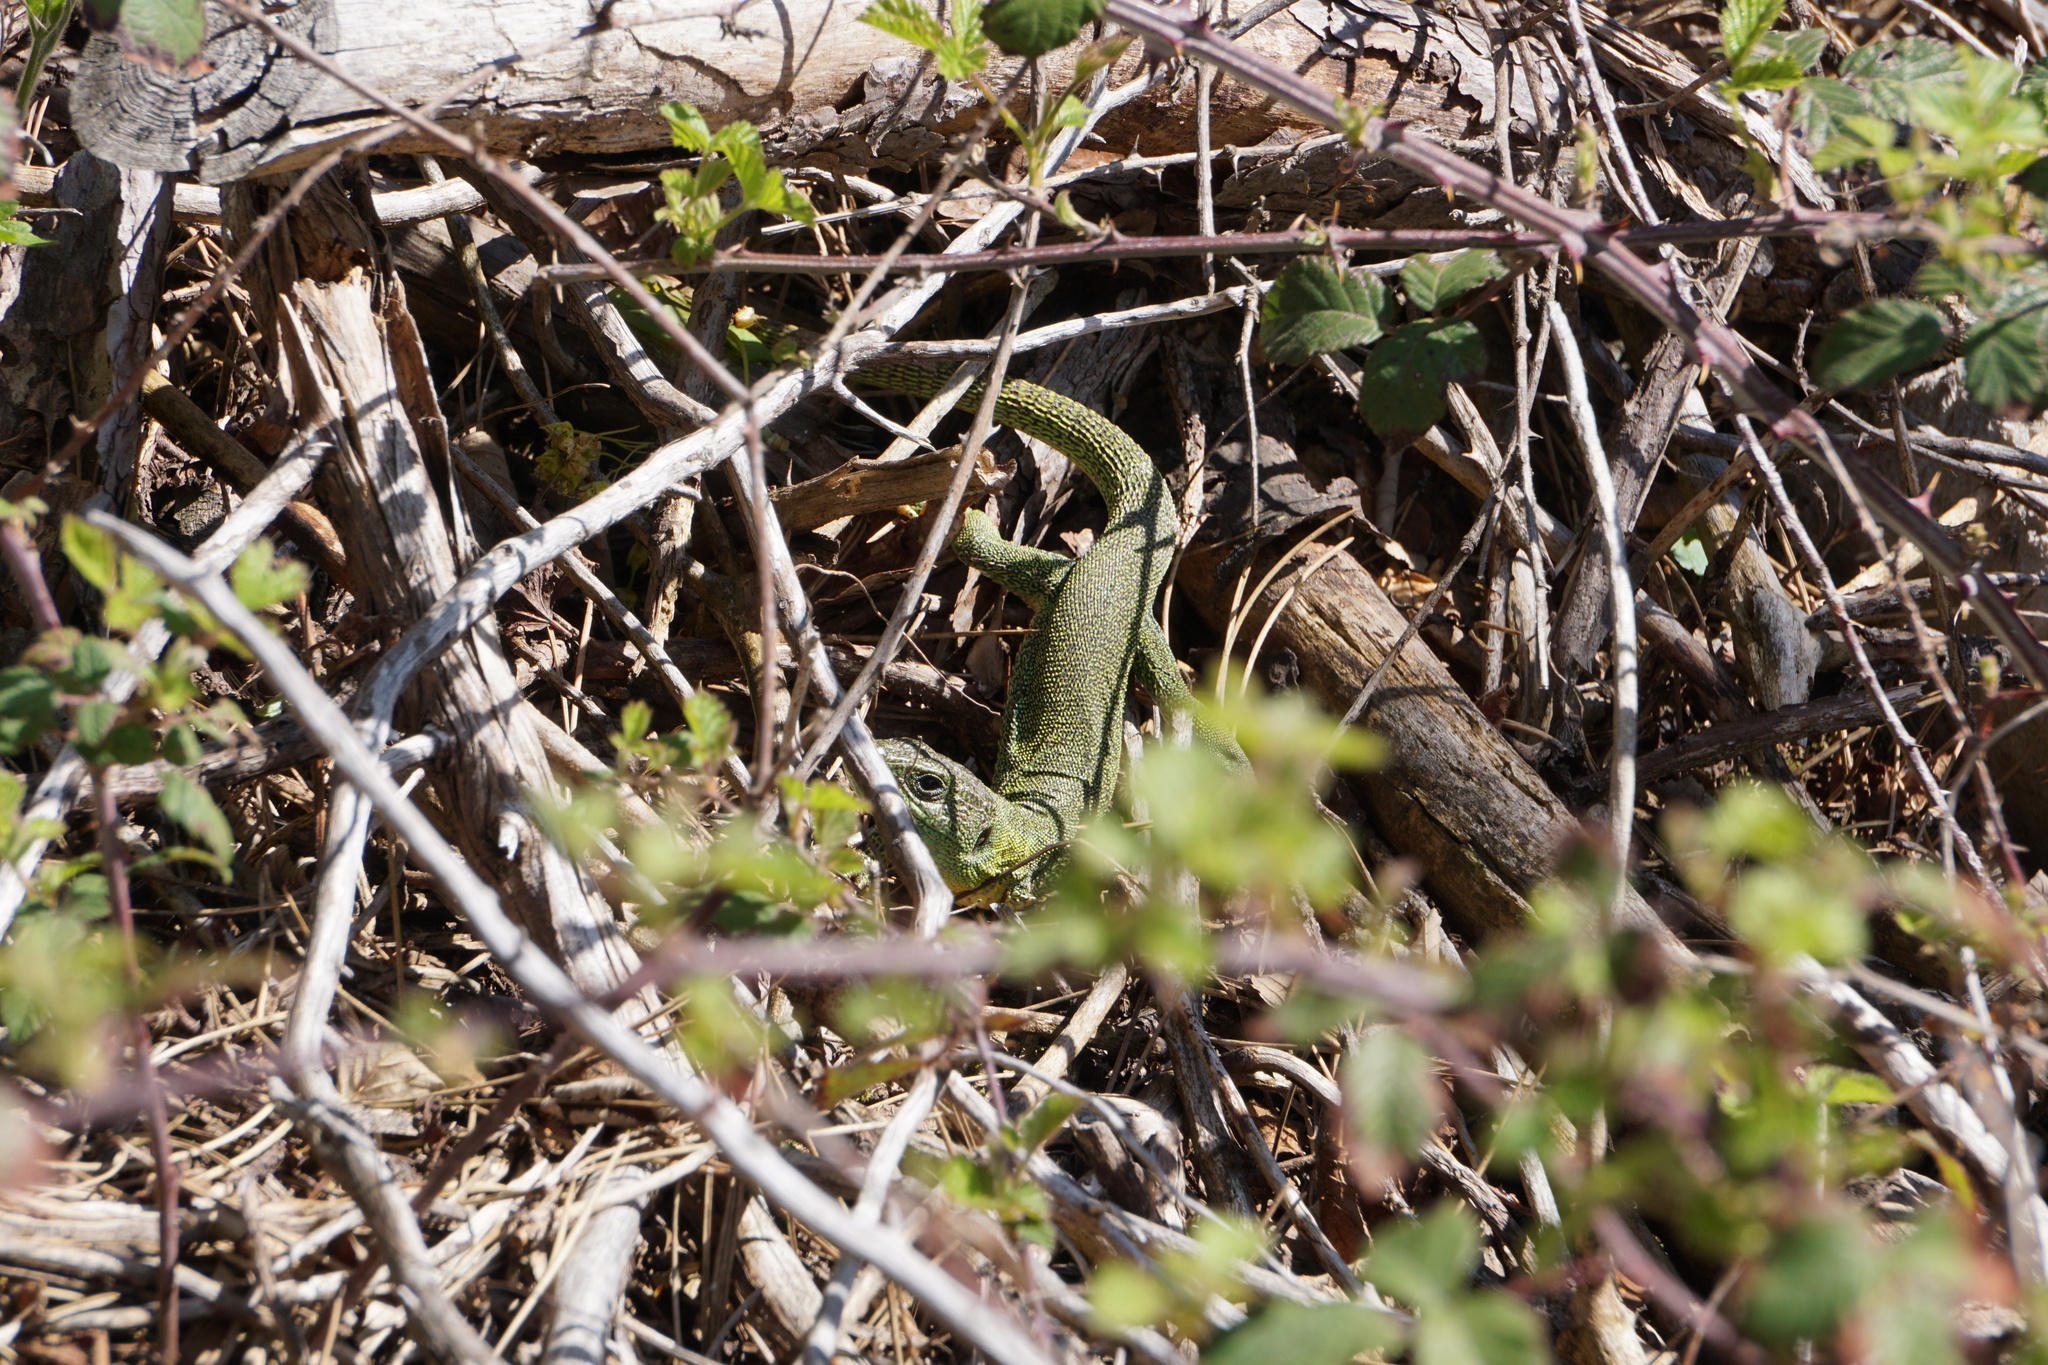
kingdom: Animalia
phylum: Chordata
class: Squamata
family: Lacertidae
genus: Lacerta
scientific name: Lacerta trilineata
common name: Balkan green lizard
